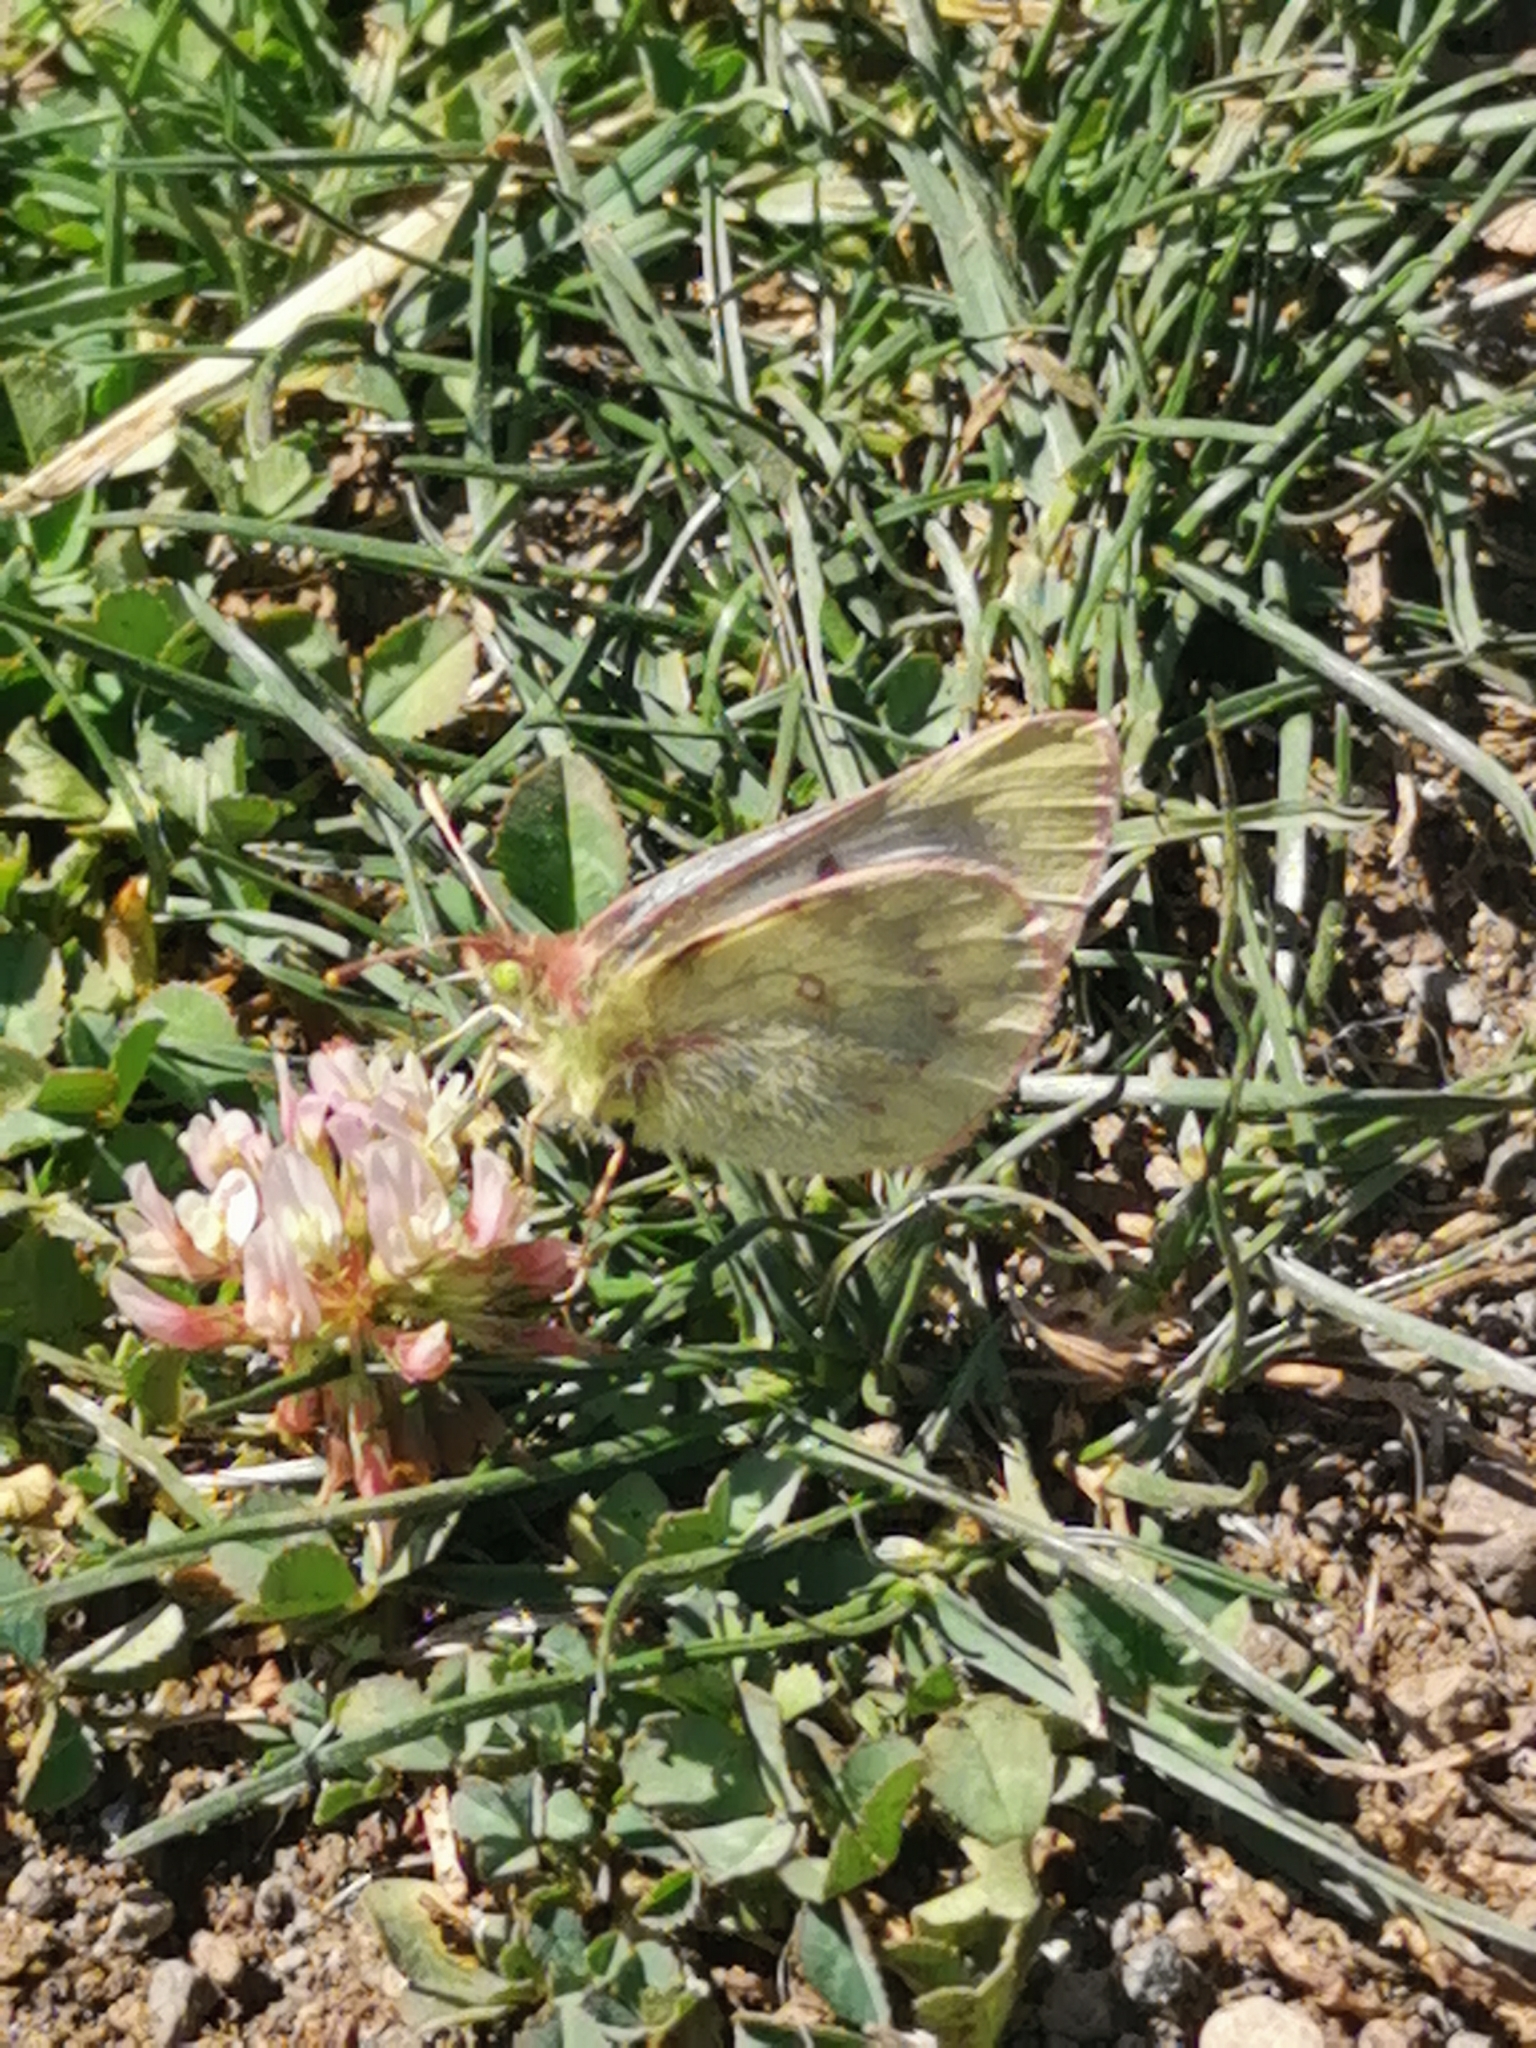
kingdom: Animalia
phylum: Arthropoda
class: Insecta
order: Lepidoptera
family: Pieridae
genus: Colias
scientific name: Colias vauthierii
